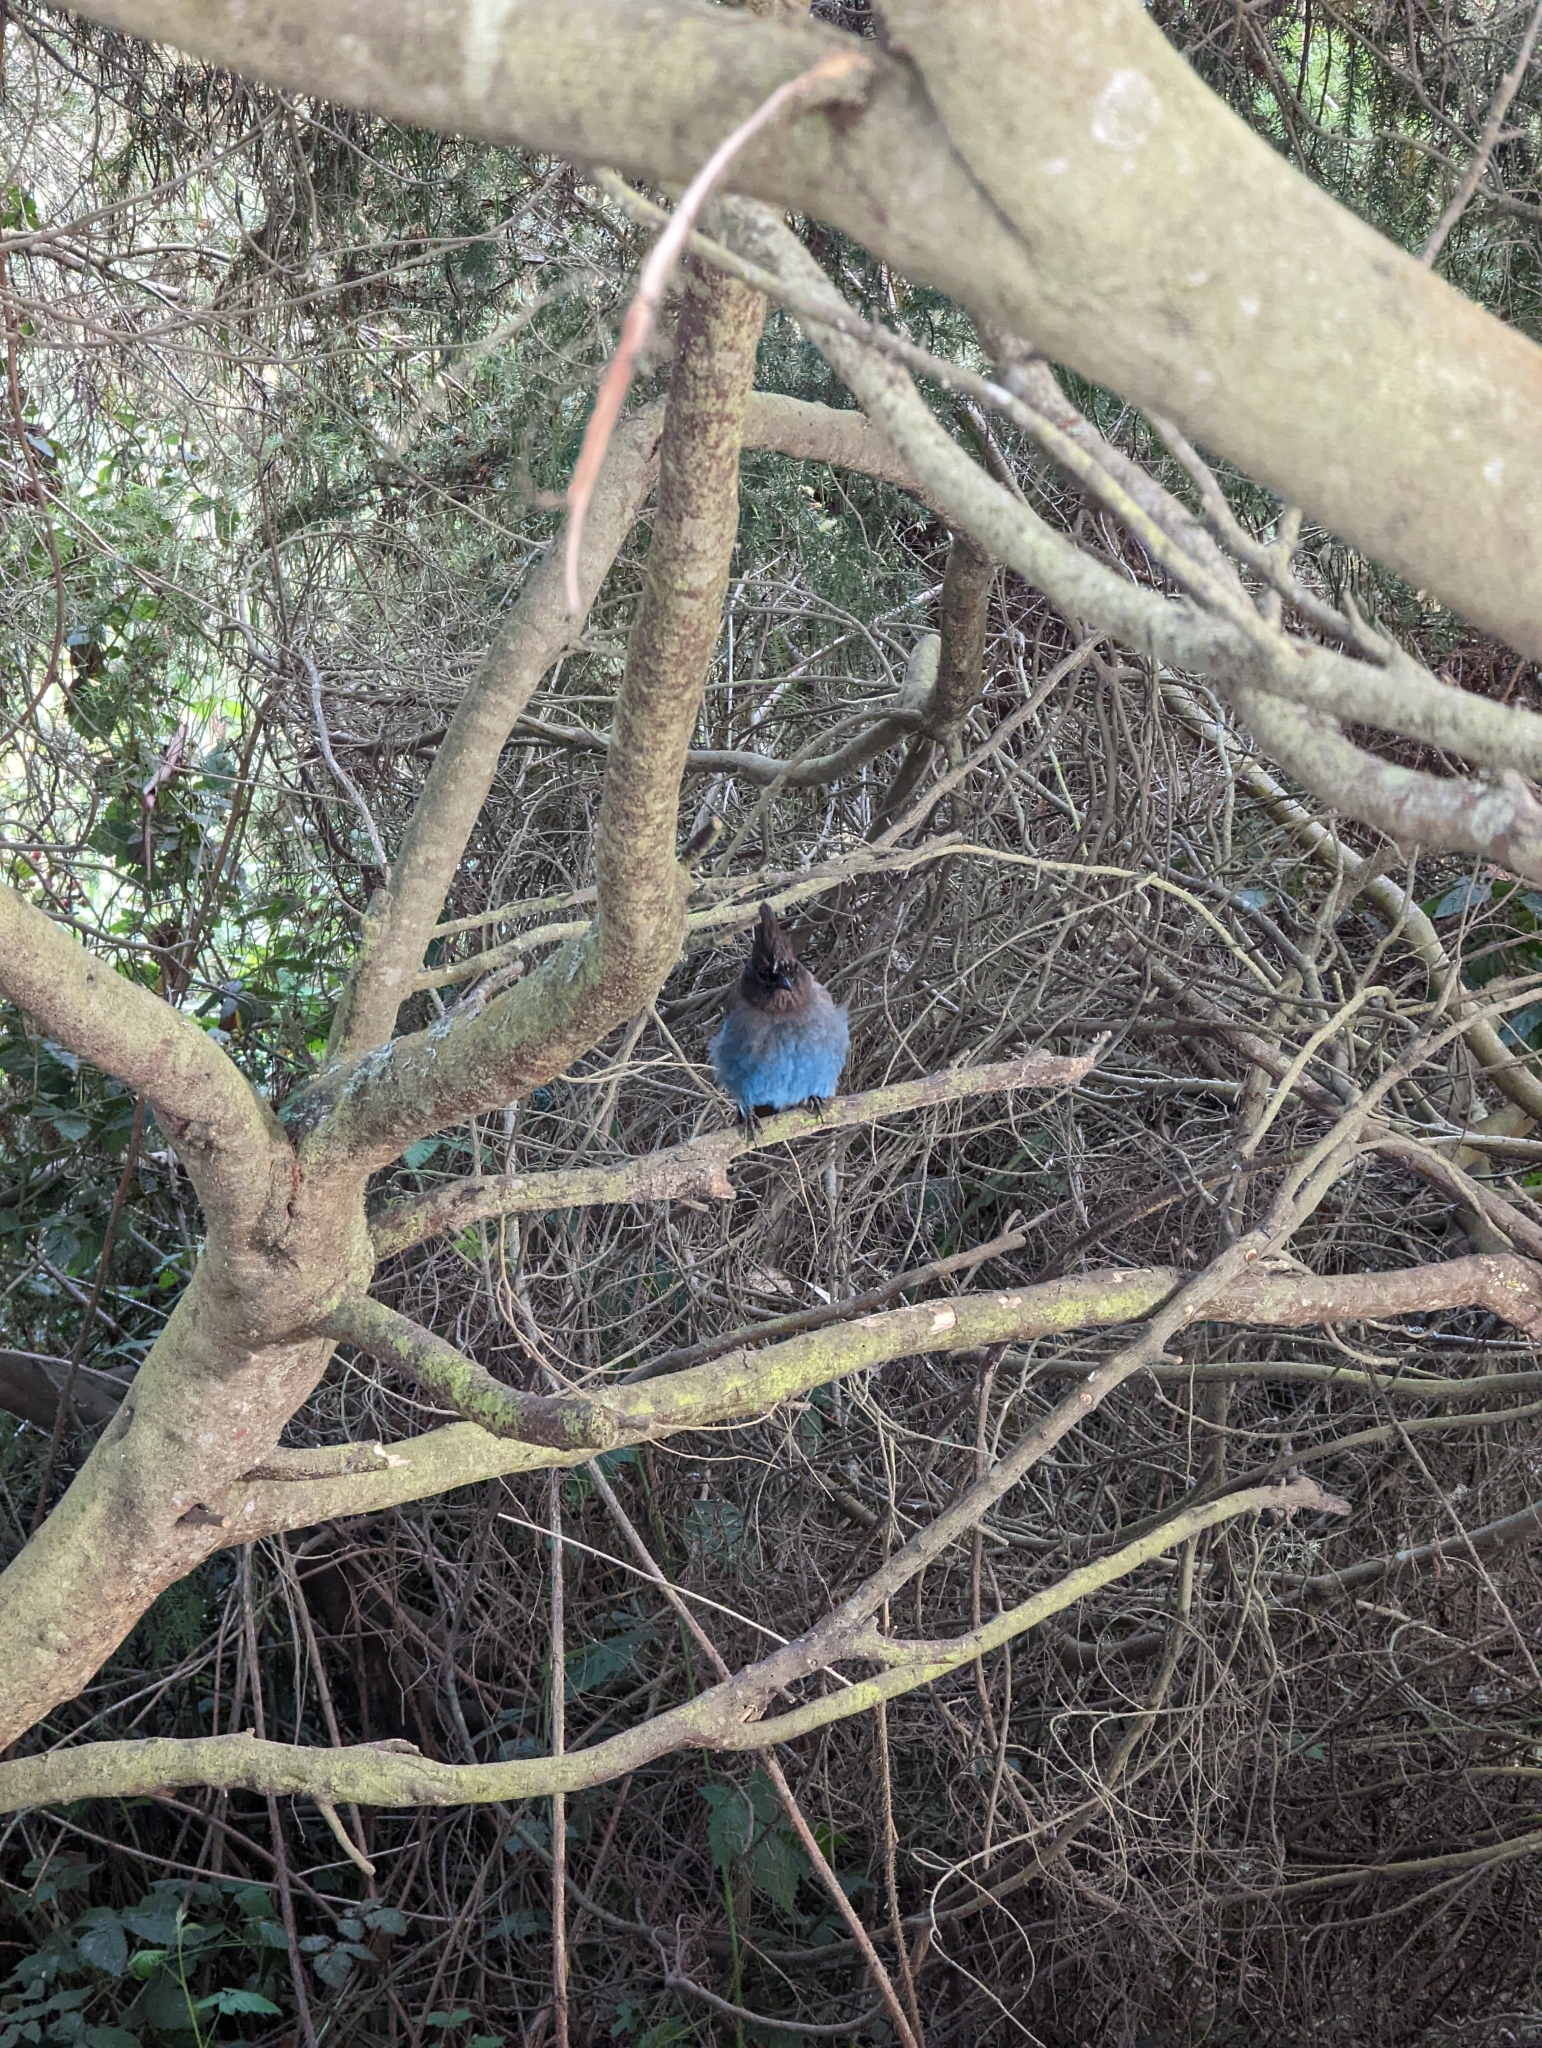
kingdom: Animalia
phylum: Chordata
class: Aves
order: Passeriformes
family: Corvidae
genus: Cyanocitta
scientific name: Cyanocitta stelleri
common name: Steller's jay
